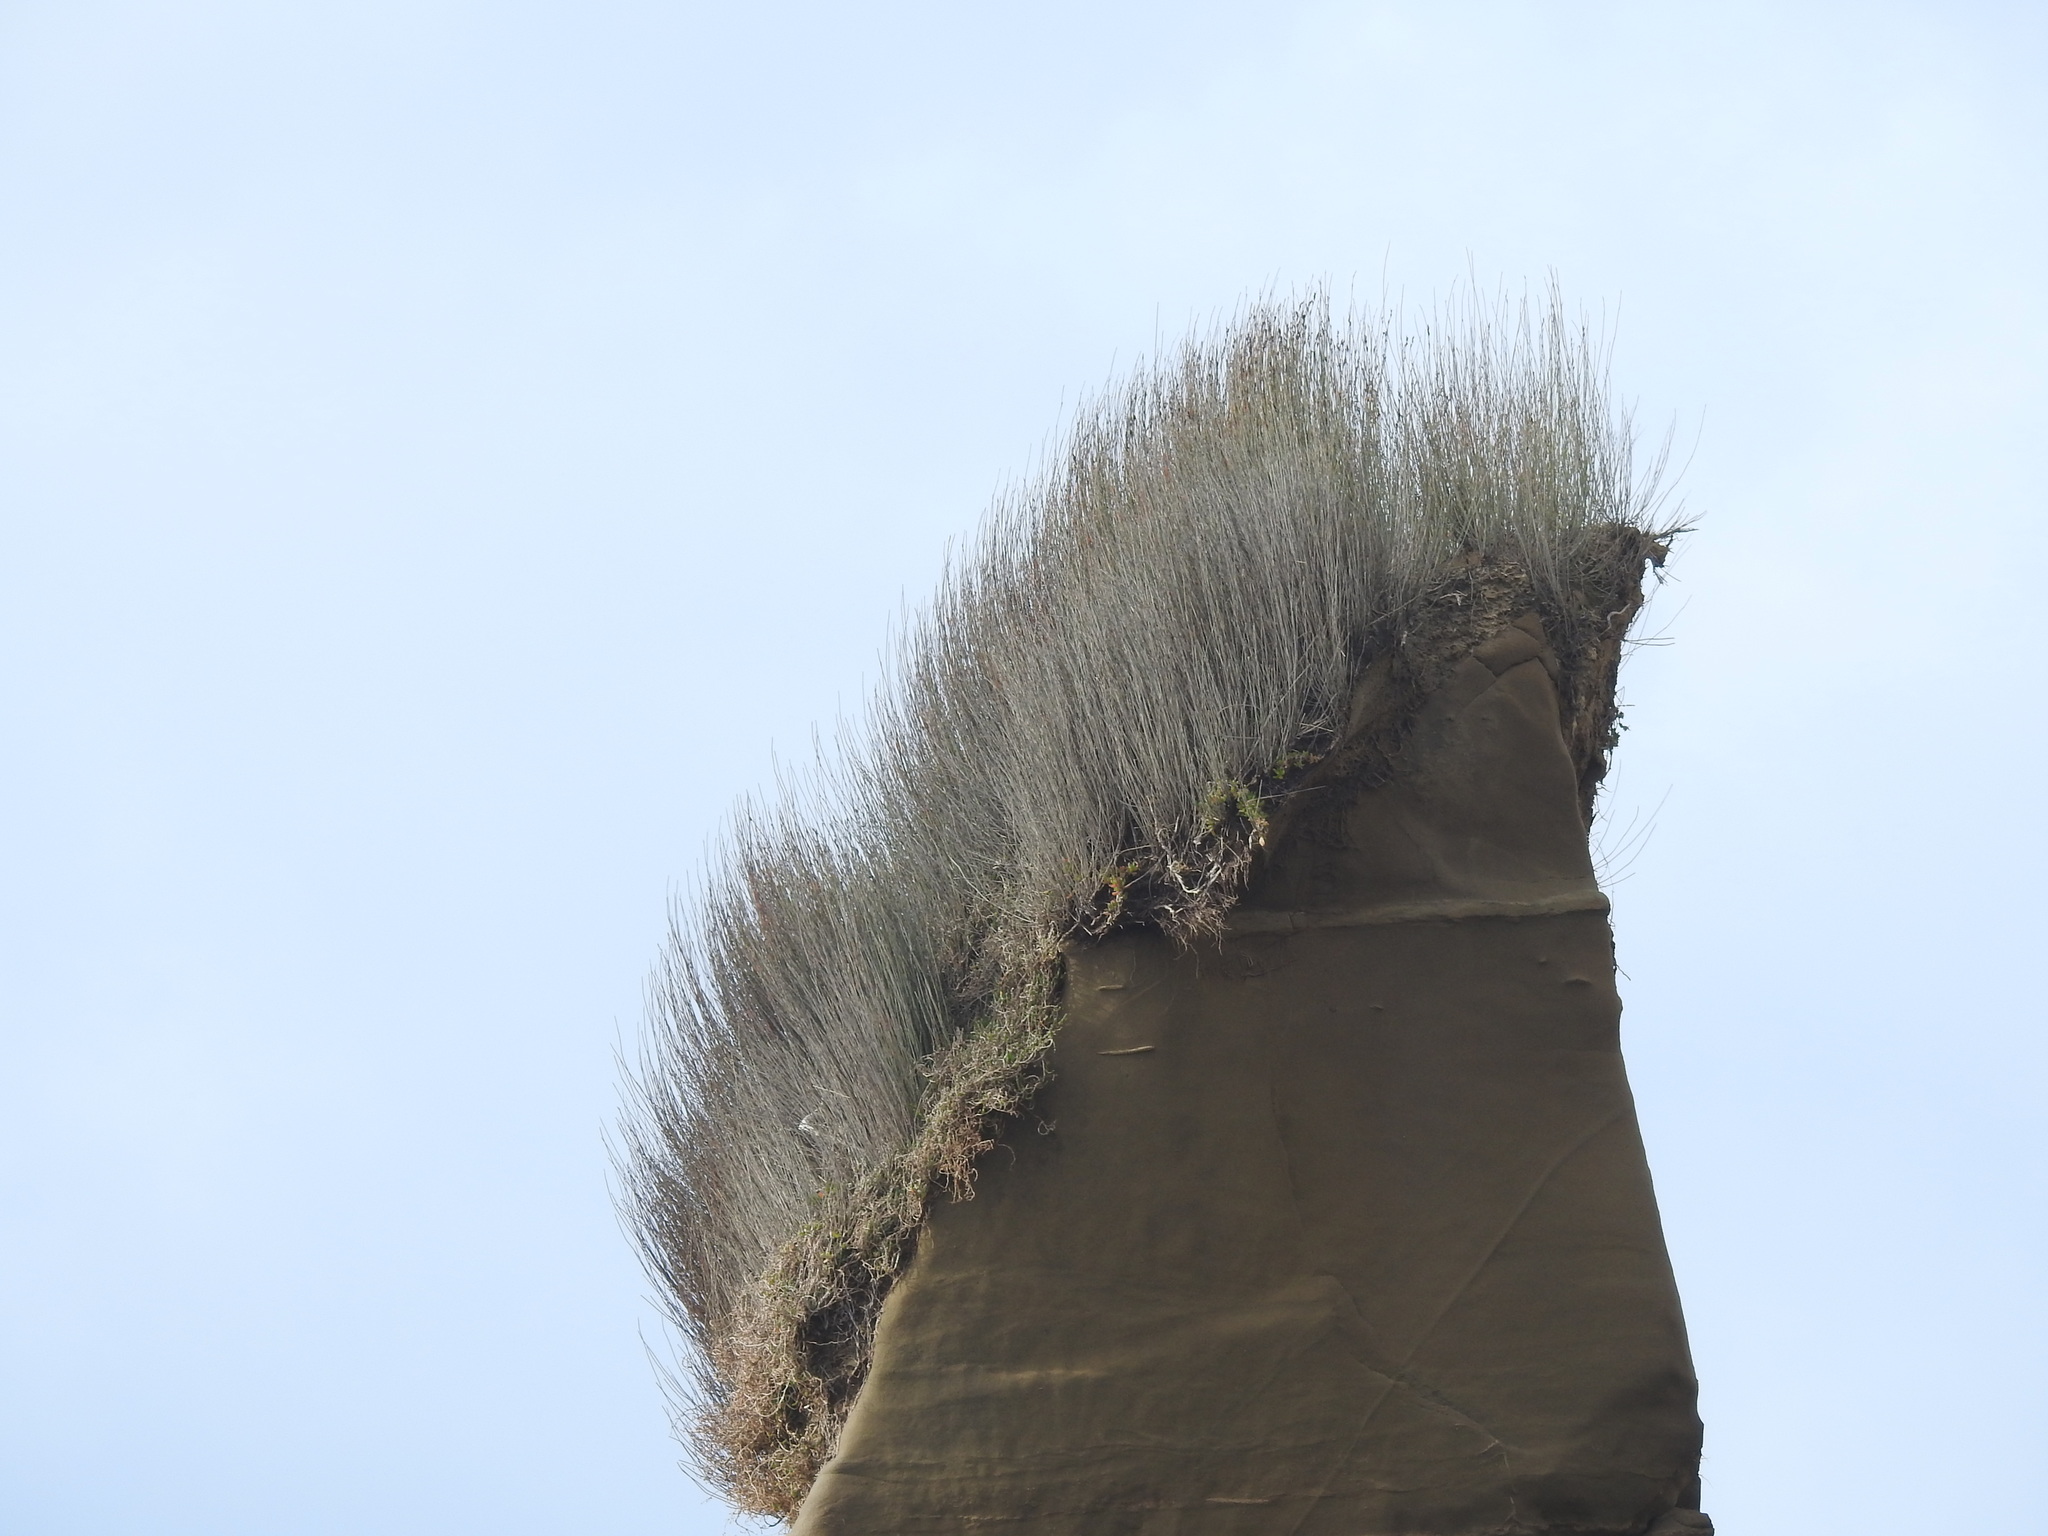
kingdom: Plantae
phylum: Tracheophyta
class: Liliopsida
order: Poales
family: Restionaceae
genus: Apodasmia
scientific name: Apodasmia similis
